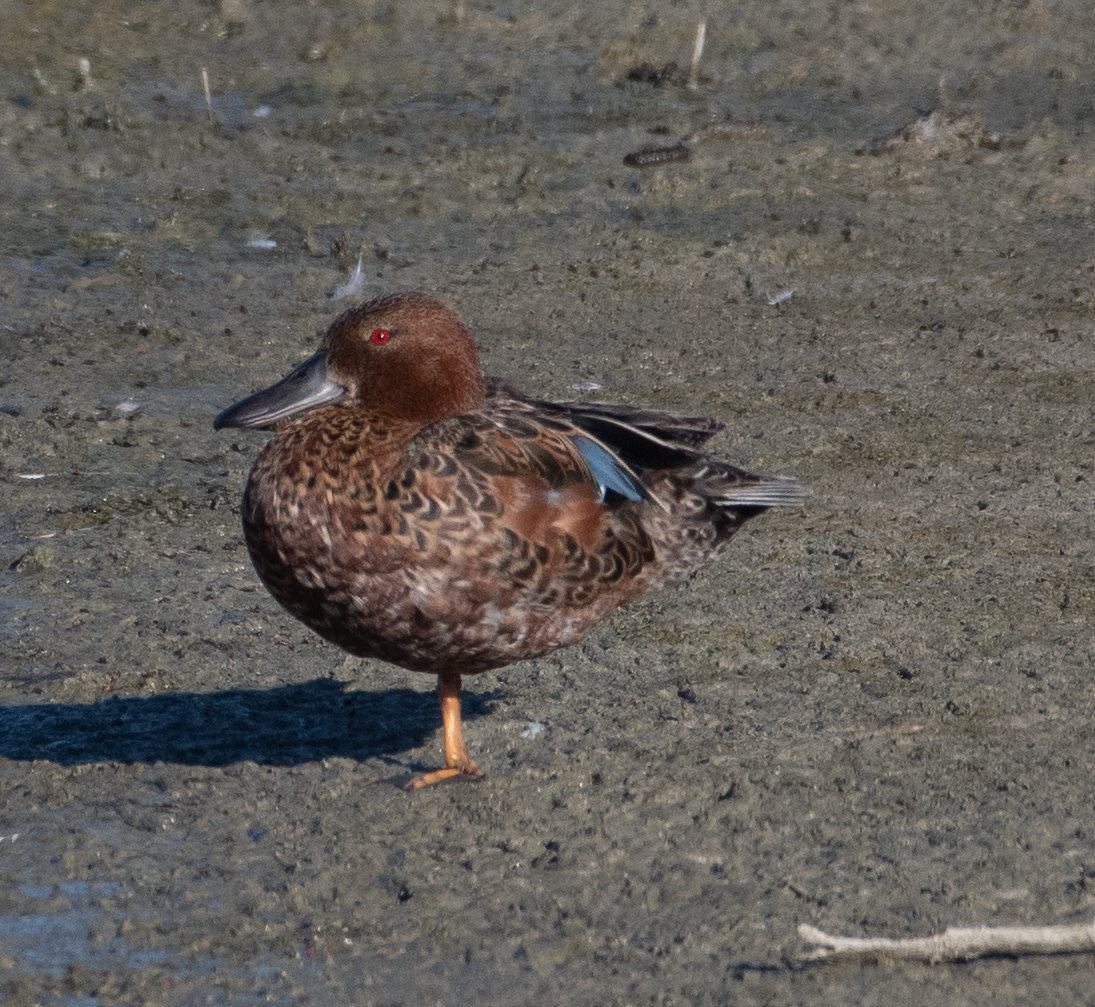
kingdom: Animalia
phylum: Chordata
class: Aves
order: Anseriformes
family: Anatidae
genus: Spatula
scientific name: Spatula cyanoptera
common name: Cinnamon teal
